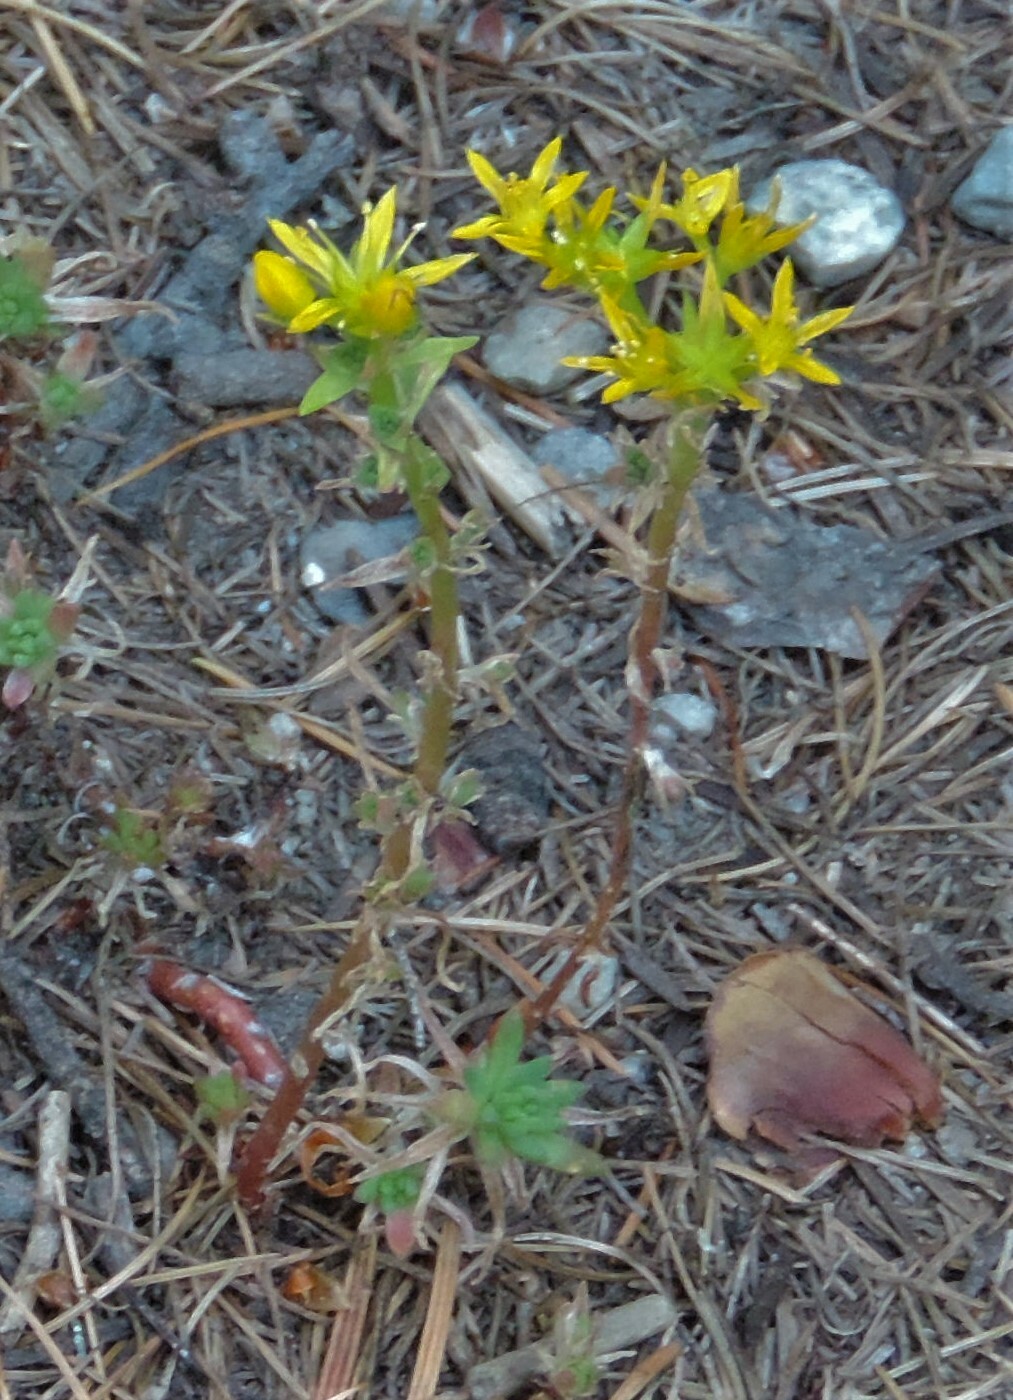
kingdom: Plantae
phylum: Tracheophyta
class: Magnoliopsida
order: Saxifragales
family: Crassulaceae
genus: Sedum
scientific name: Sedum stenopetalum
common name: Narrow-petaled stonecrop
